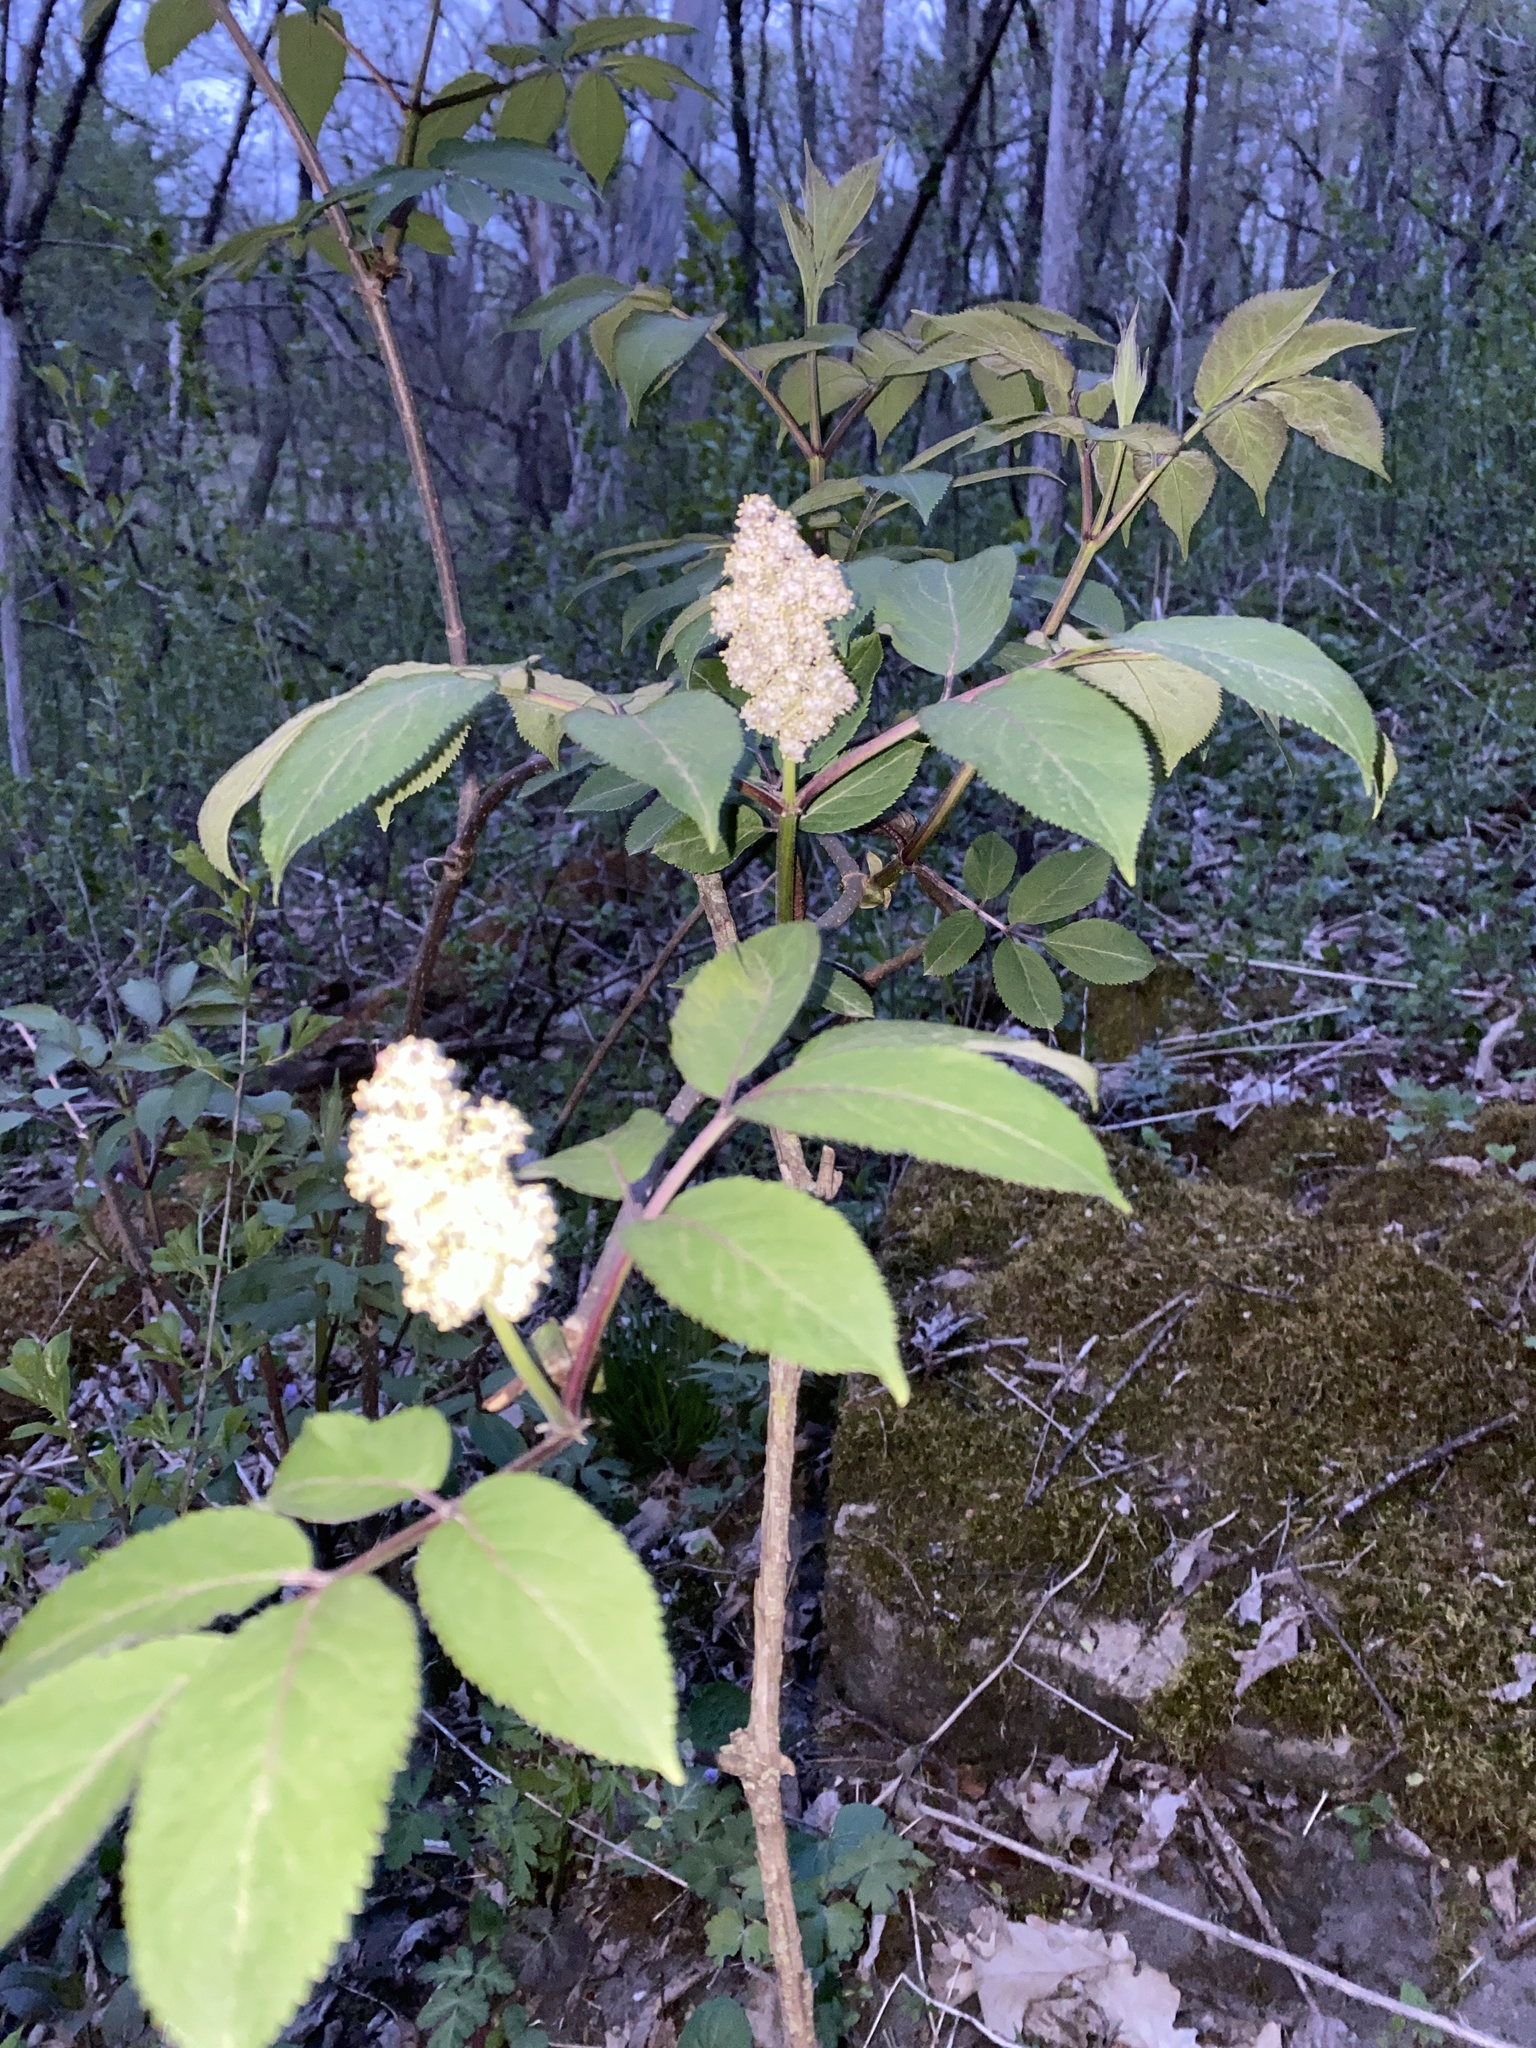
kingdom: Plantae
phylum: Tracheophyta
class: Magnoliopsida
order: Dipsacales
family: Viburnaceae
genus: Sambucus
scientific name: Sambucus racemosa
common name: Red-berried elder
